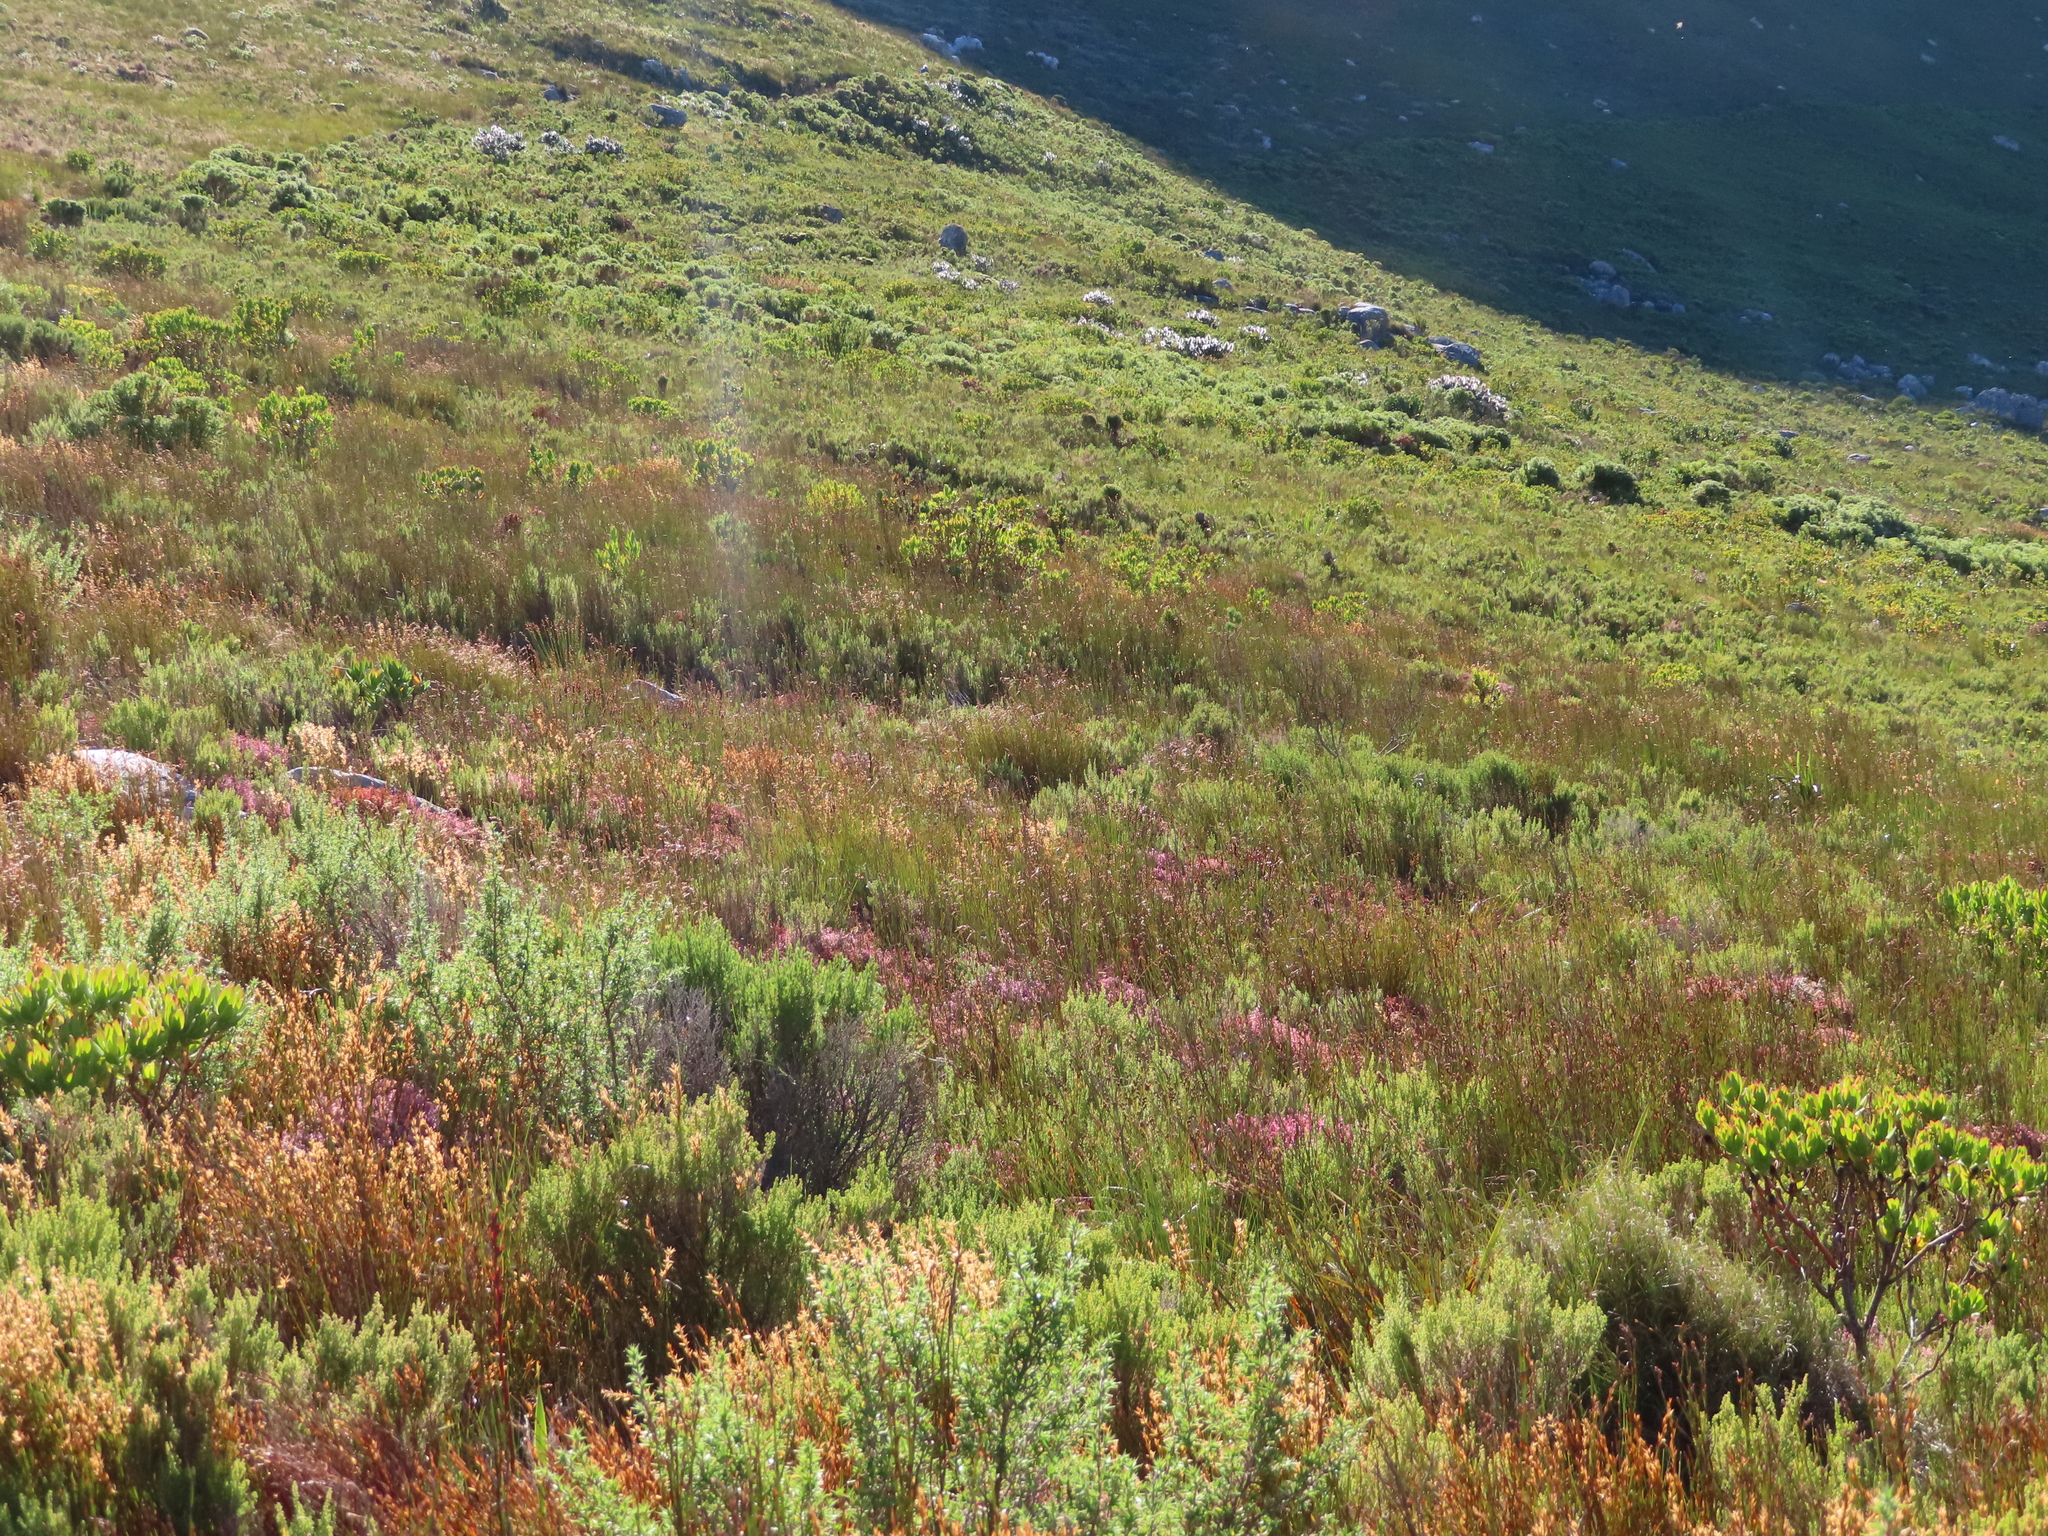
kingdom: Plantae
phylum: Tracheophyta
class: Magnoliopsida
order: Proteales
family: Proteaceae
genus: Mimetes
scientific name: Mimetes argenteus
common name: Silver pagoda
